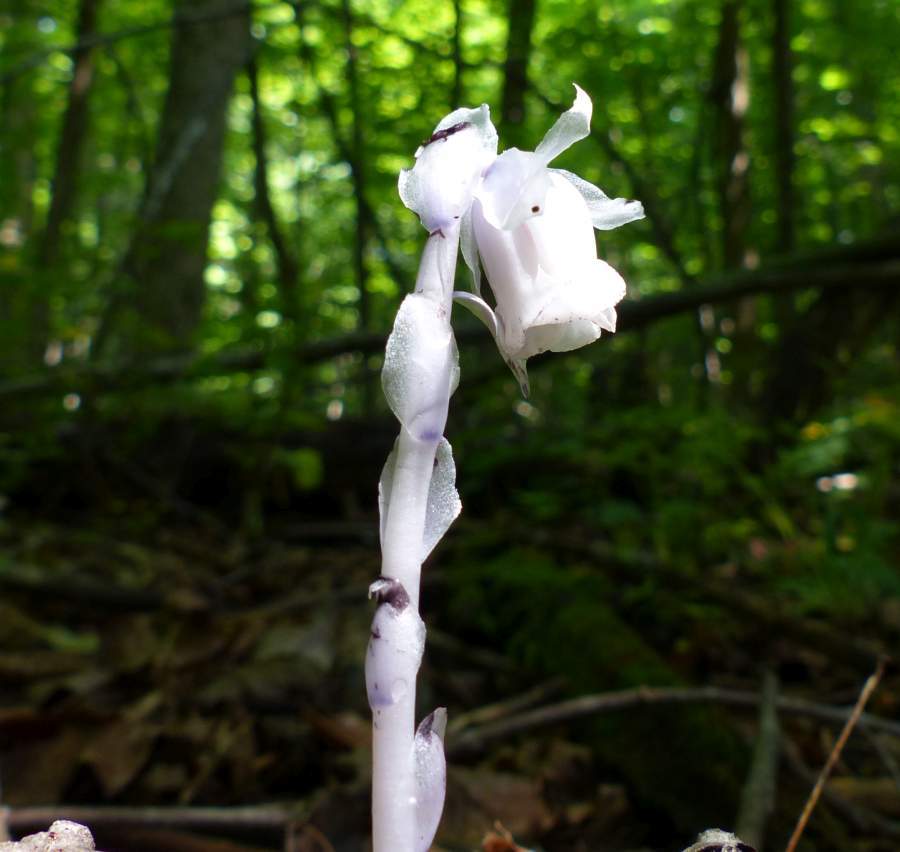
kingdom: Plantae
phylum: Tracheophyta
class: Magnoliopsida
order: Ericales
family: Ericaceae
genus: Monotropa
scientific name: Monotropa uniflora
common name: Convulsion root
